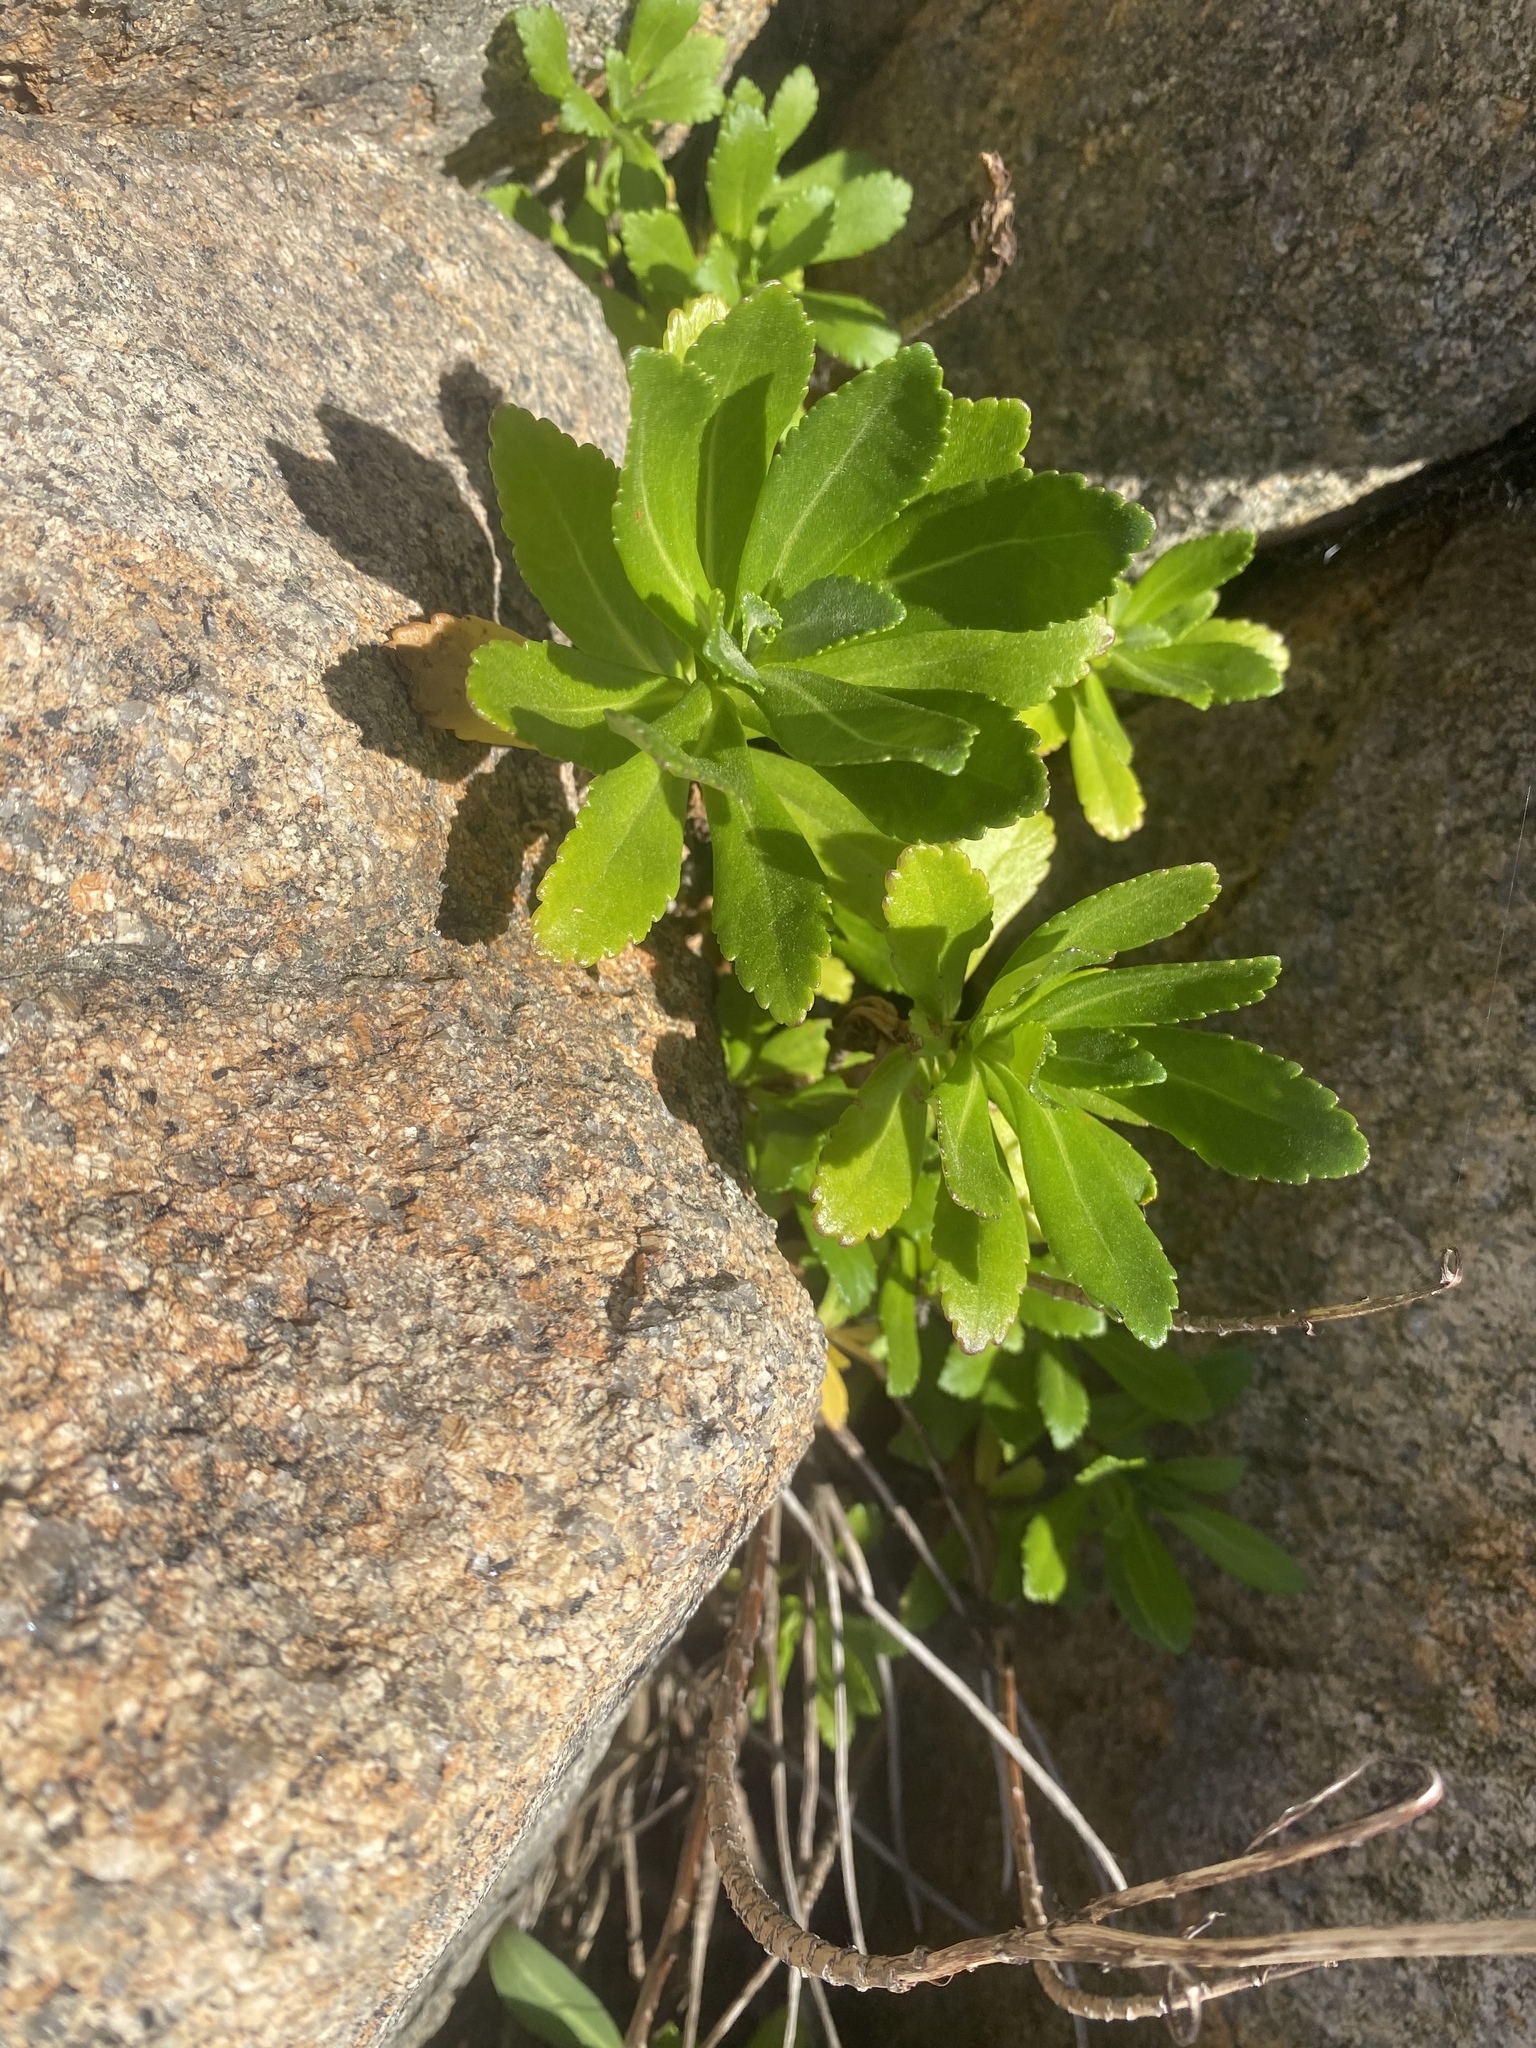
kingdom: Plantae
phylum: Tracheophyta
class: Magnoliopsida
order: Asterales
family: Asteraceae
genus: Nipponanthemum
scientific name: Nipponanthemum nipponicum
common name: Nippon daisy
